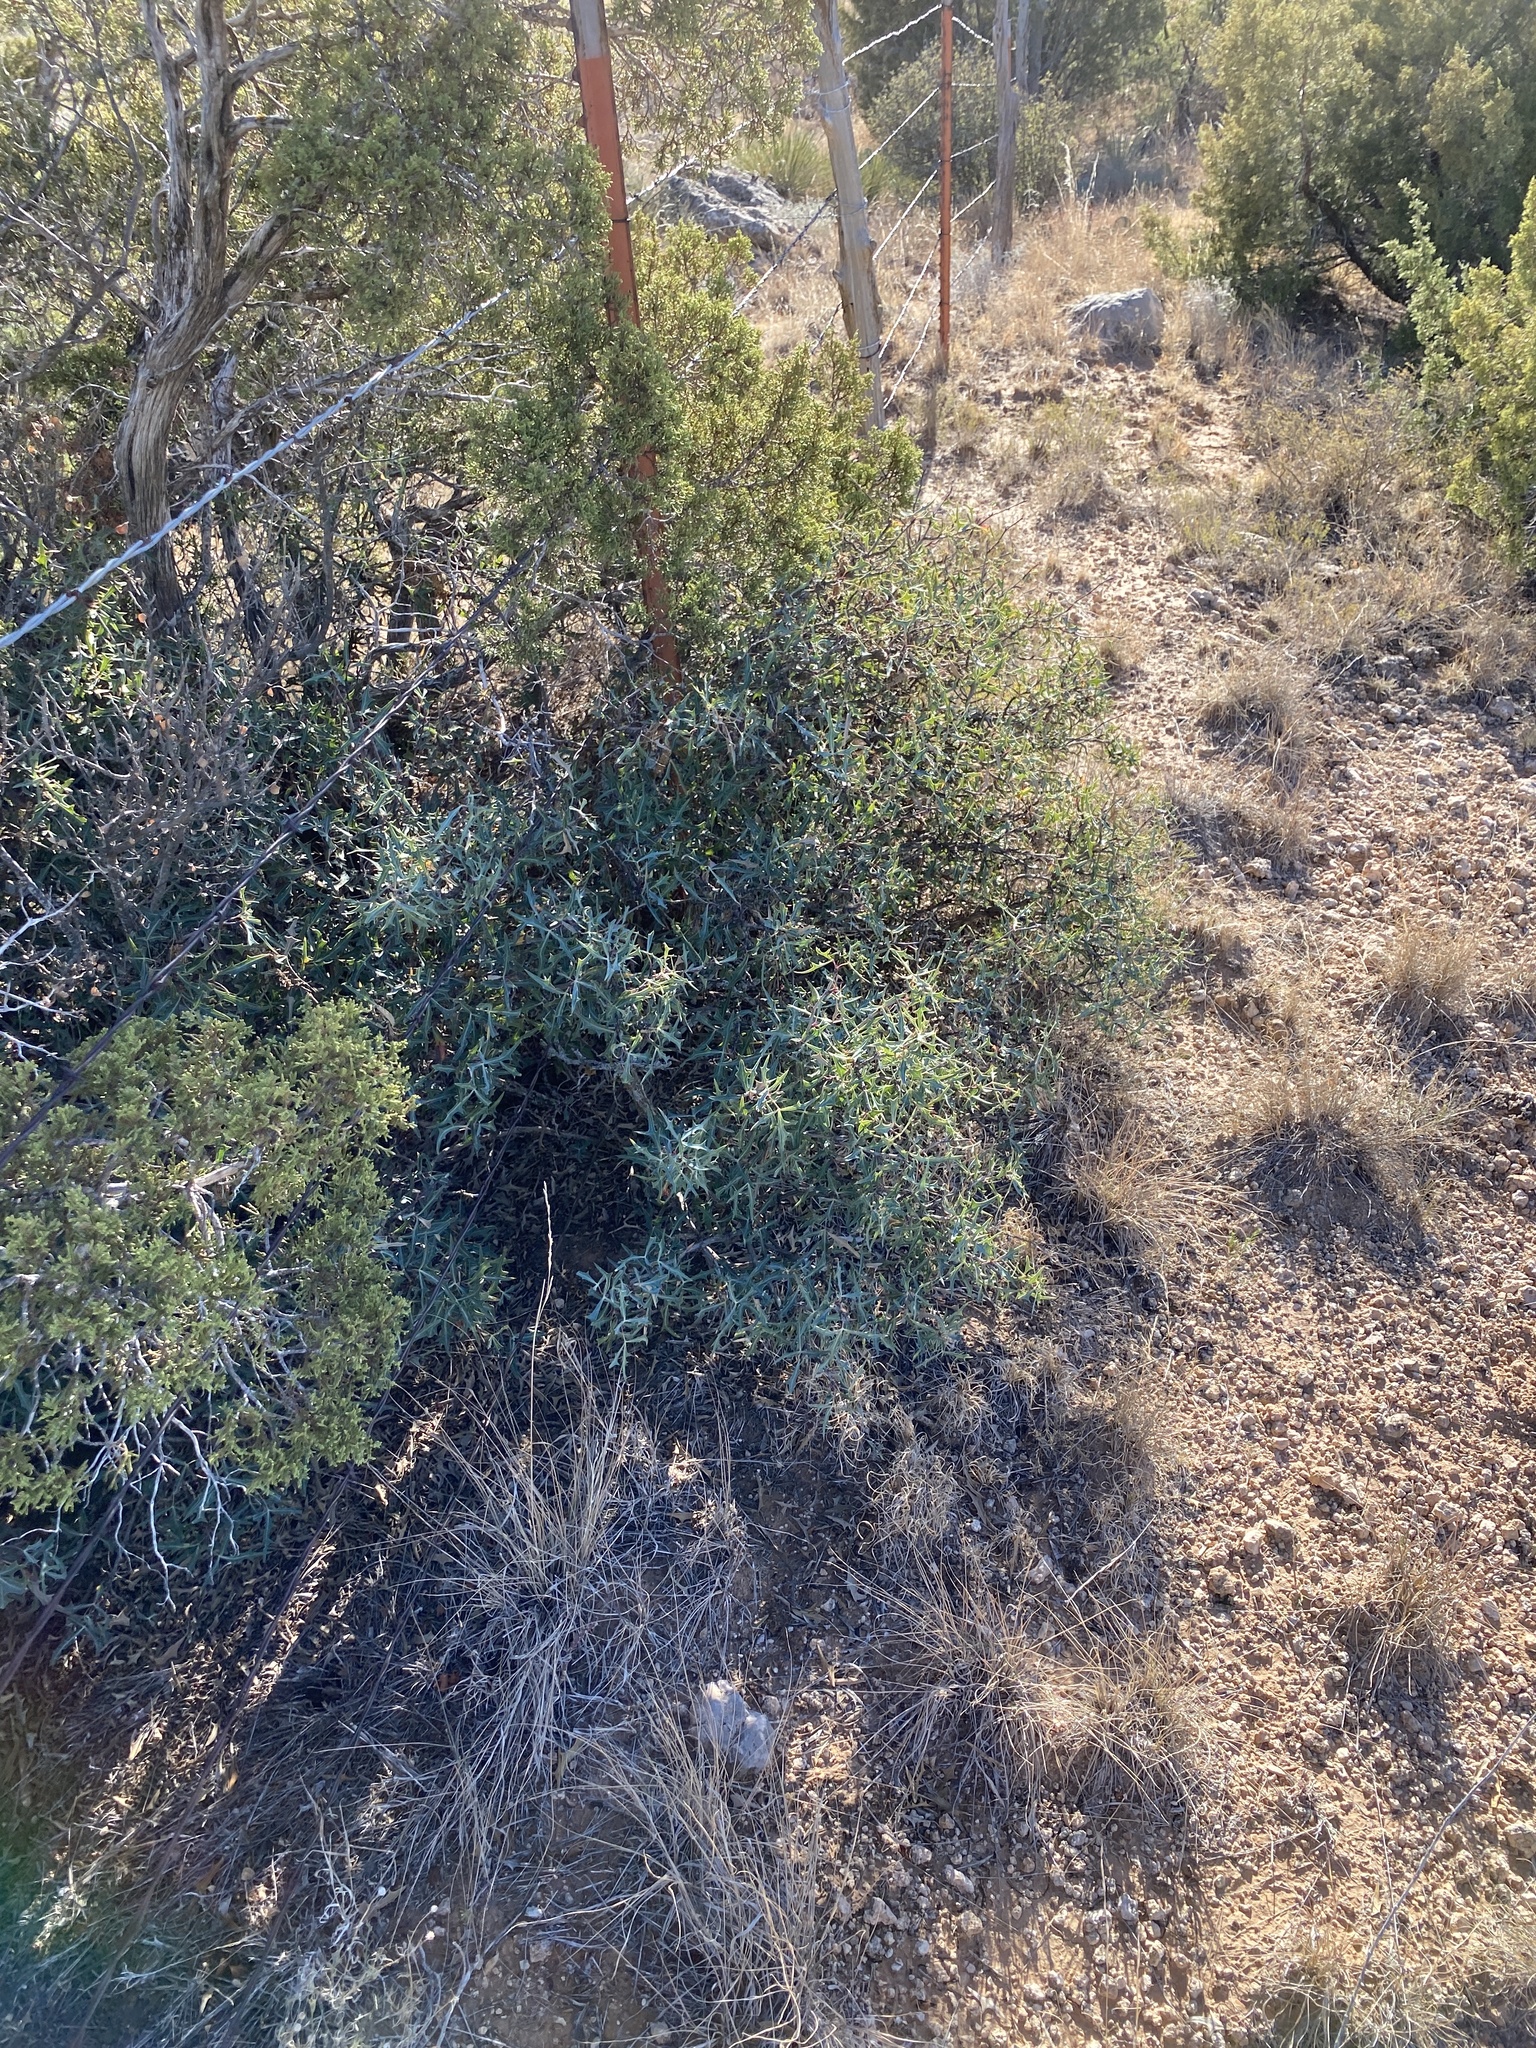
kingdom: Plantae
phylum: Tracheophyta
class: Magnoliopsida
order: Ranunculales
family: Berberidaceae
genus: Alloberberis
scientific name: Alloberberis trifoliolata
